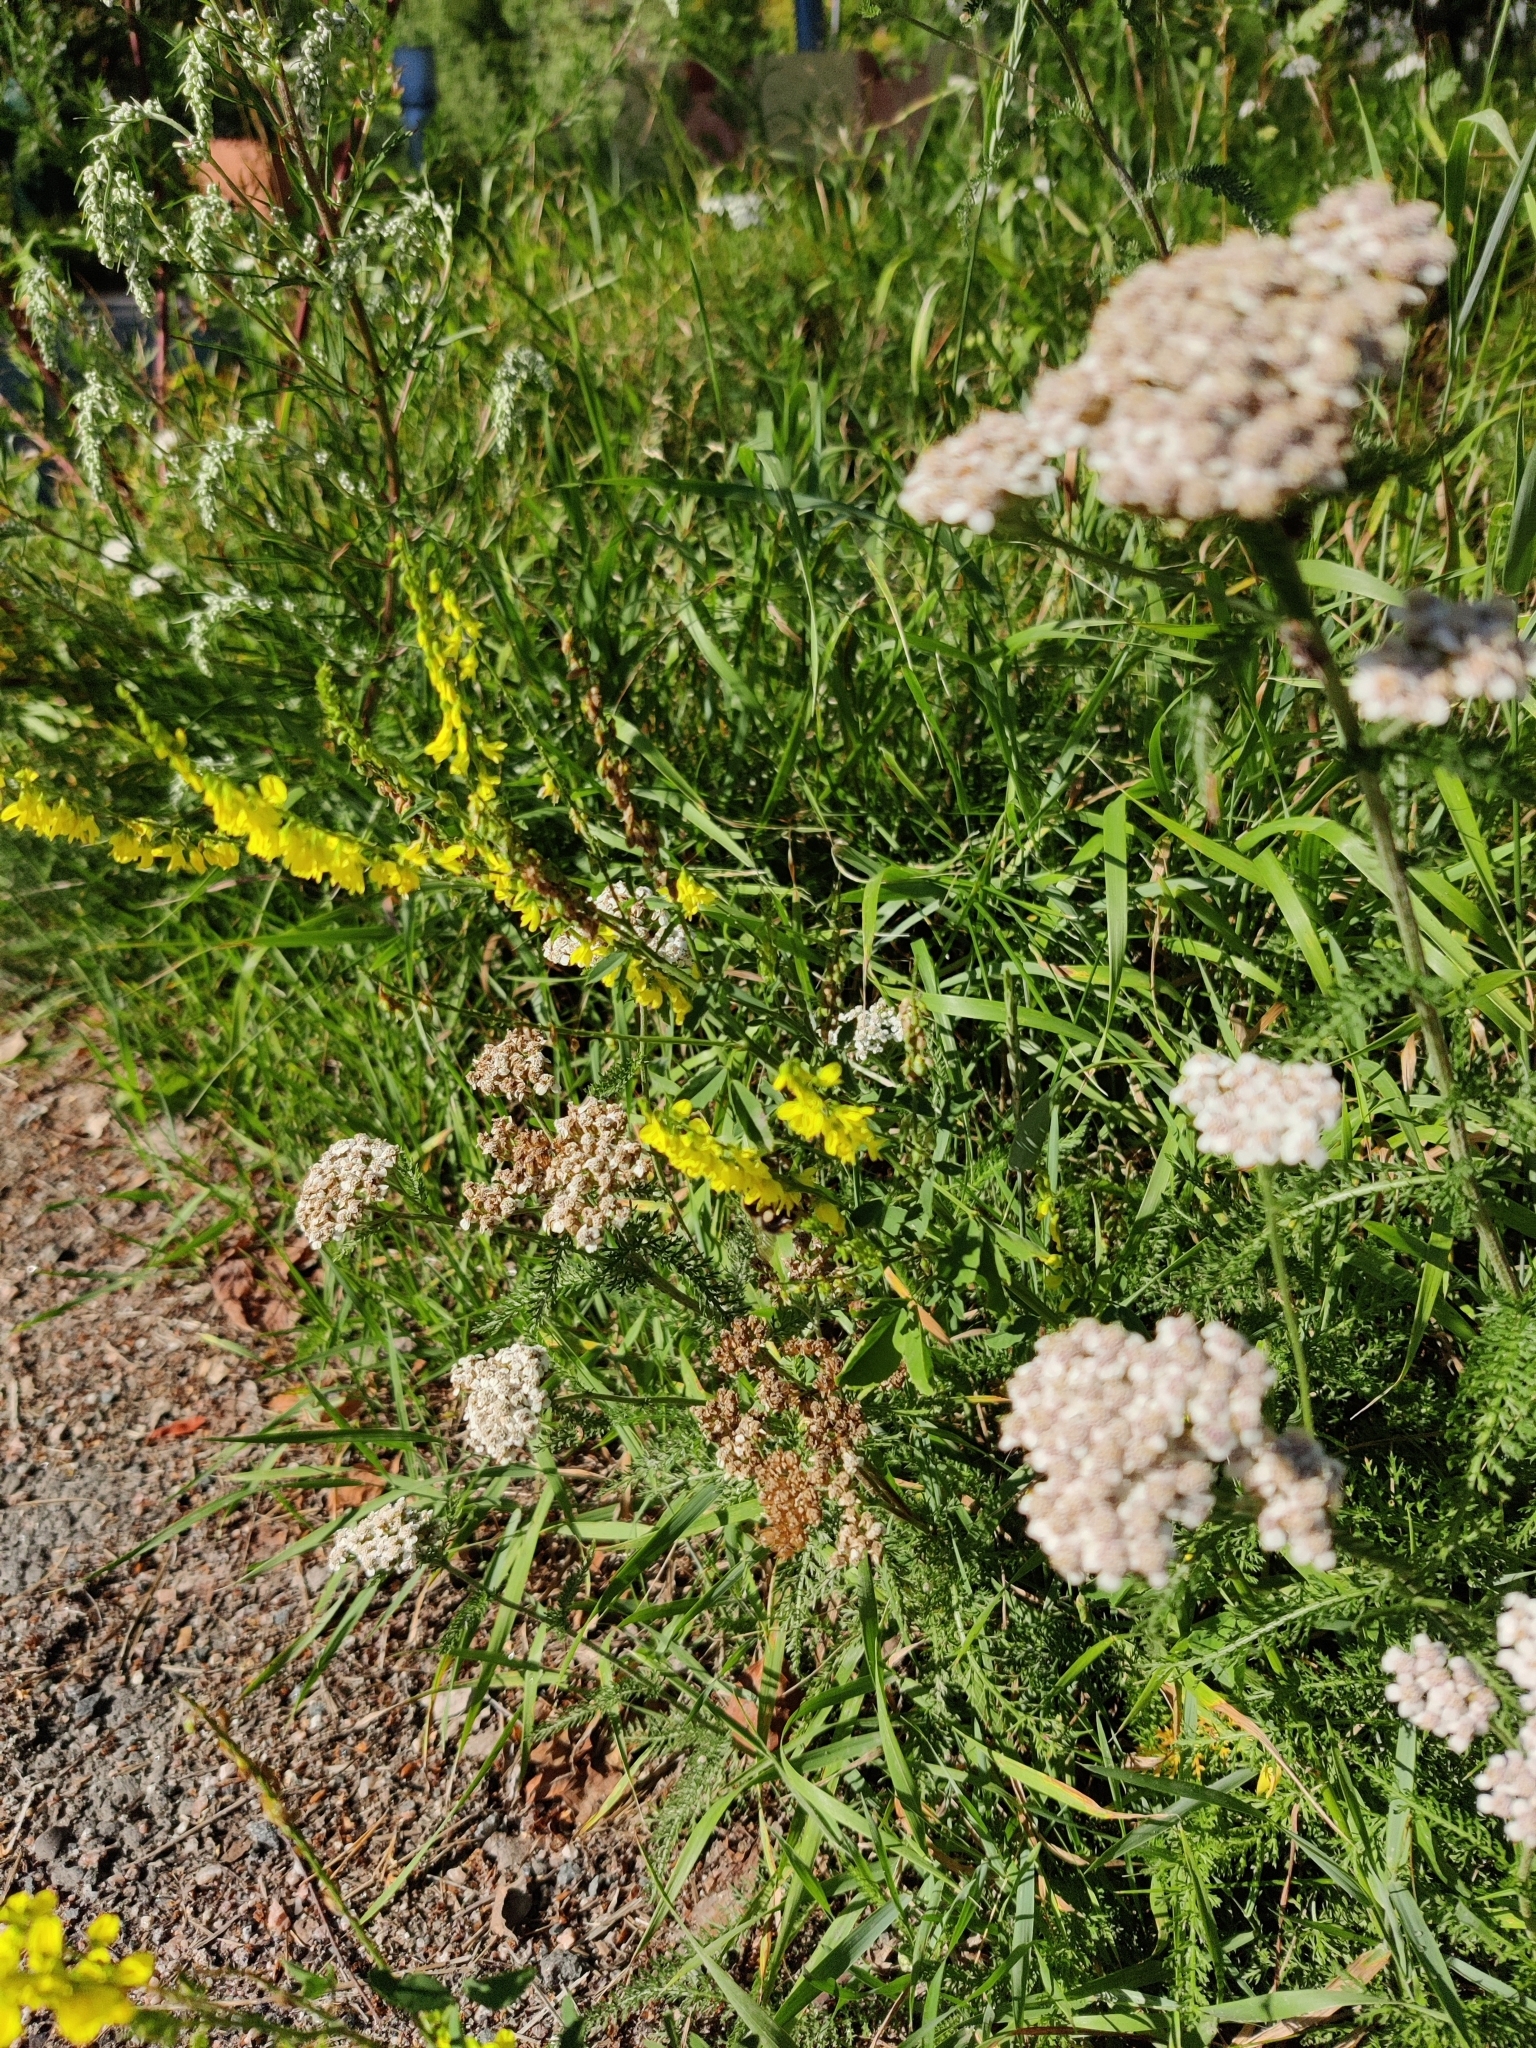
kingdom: Plantae
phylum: Tracheophyta
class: Magnoliopsida
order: Fabales
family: Fabaceae
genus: Melilotus
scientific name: Melilotus officinalis
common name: Sweetclover
